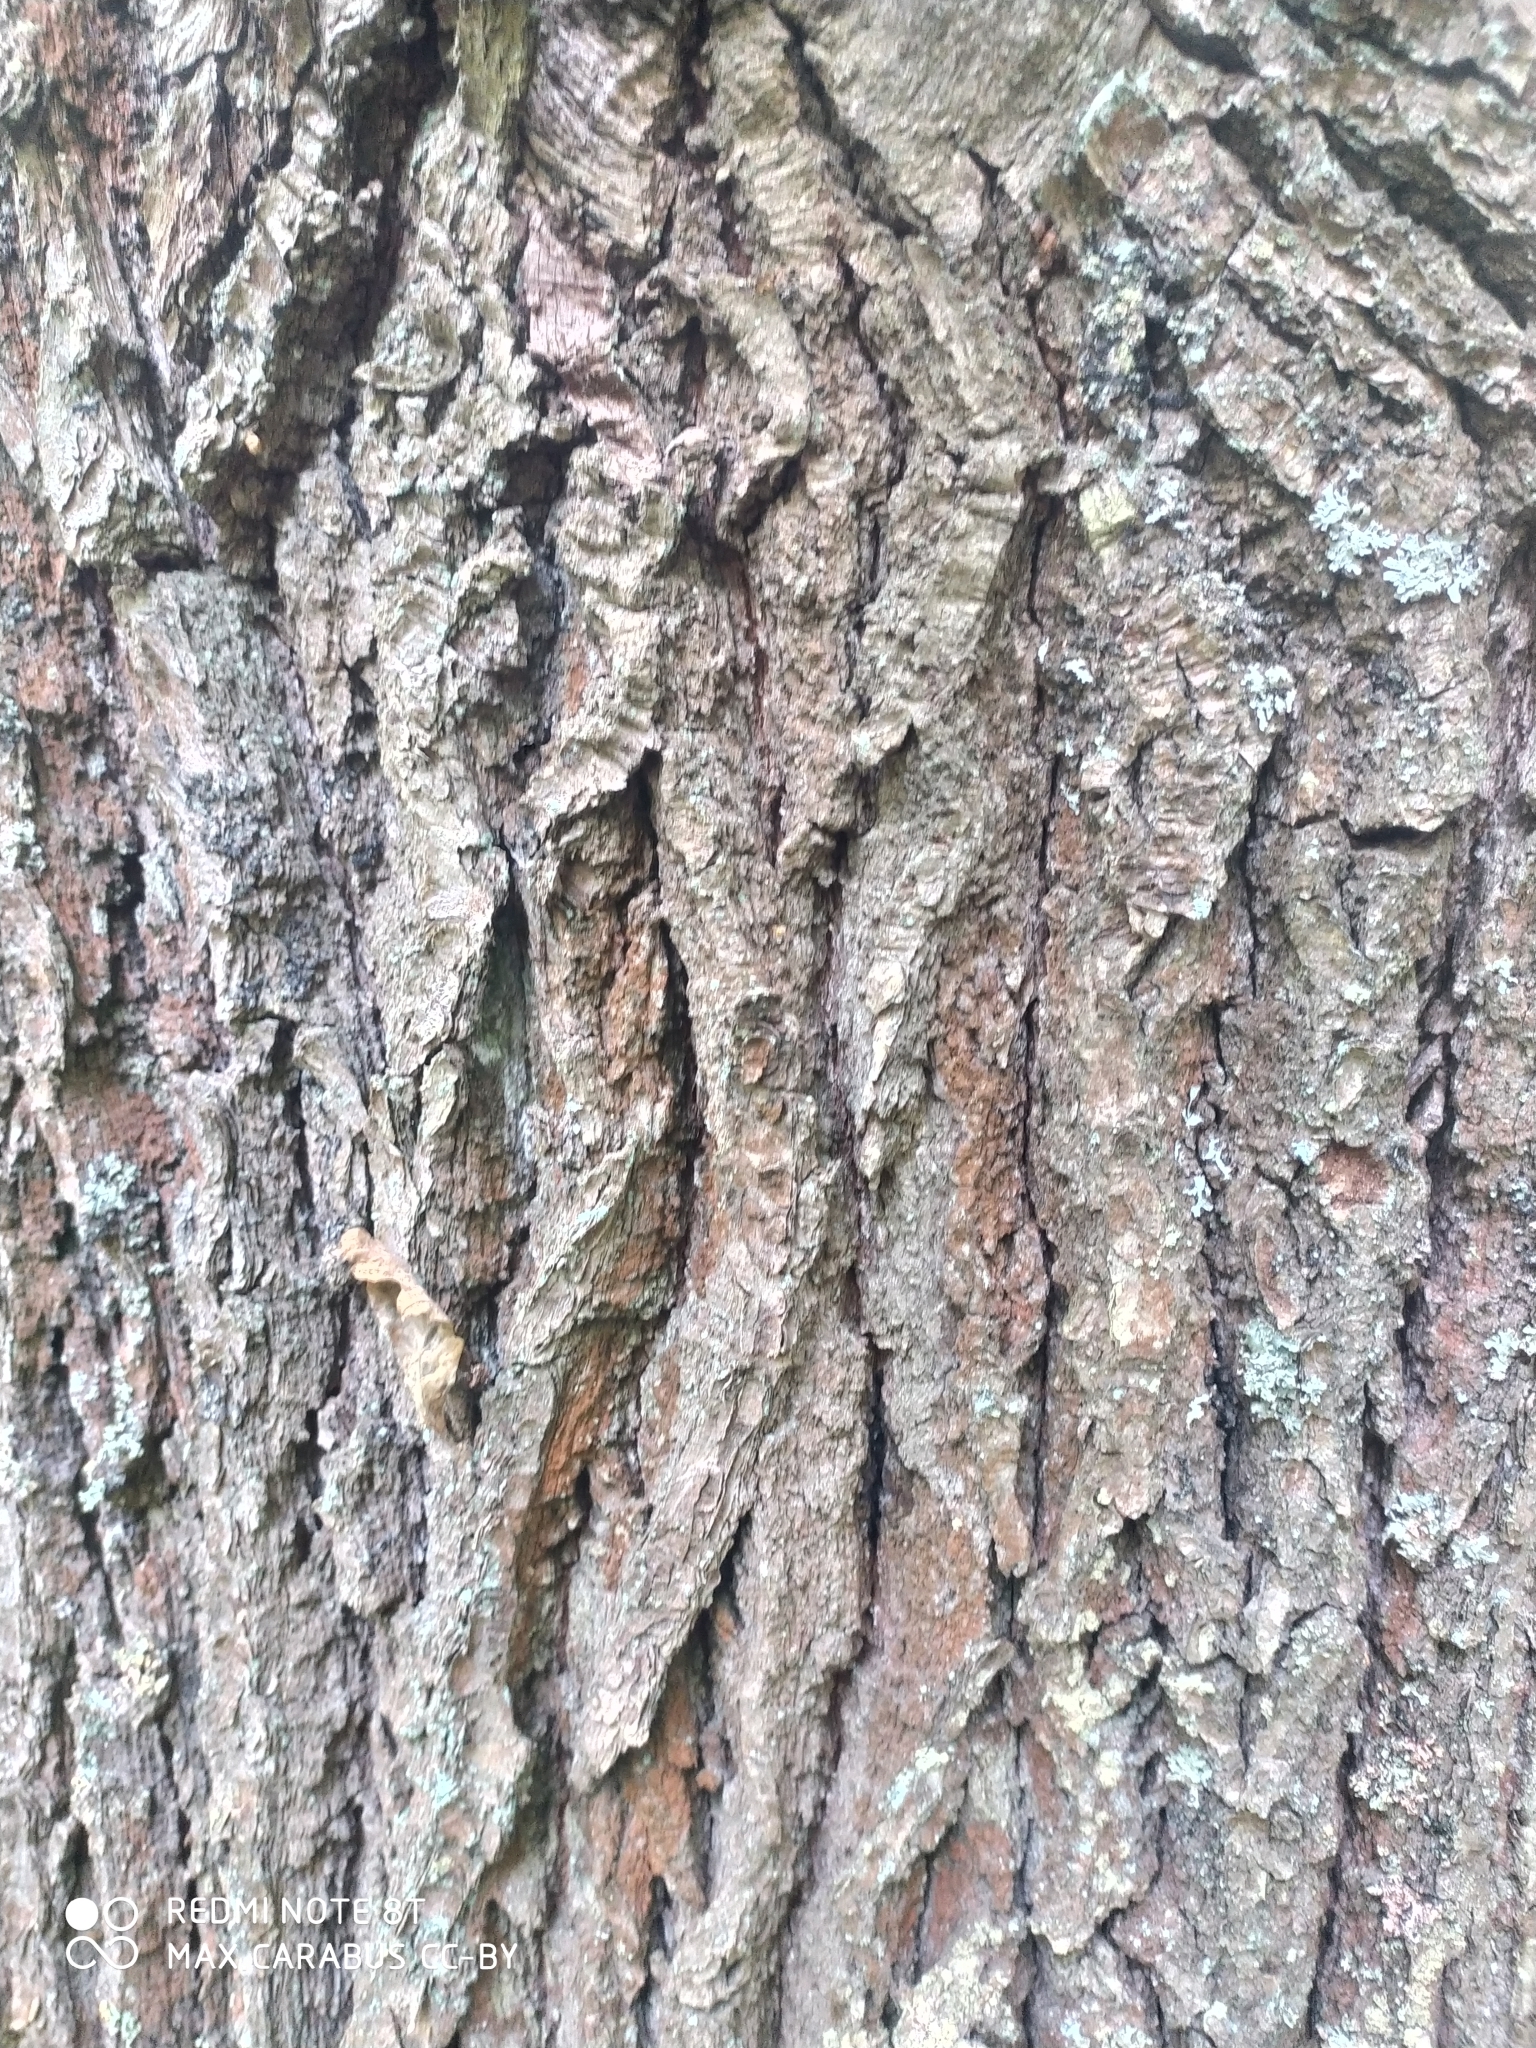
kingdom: Plantae
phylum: Tracheophyta
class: Magnoliopsida
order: Fagales
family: Fagaceae
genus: Quercus
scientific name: Quercus robur
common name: Pedunculate oak
